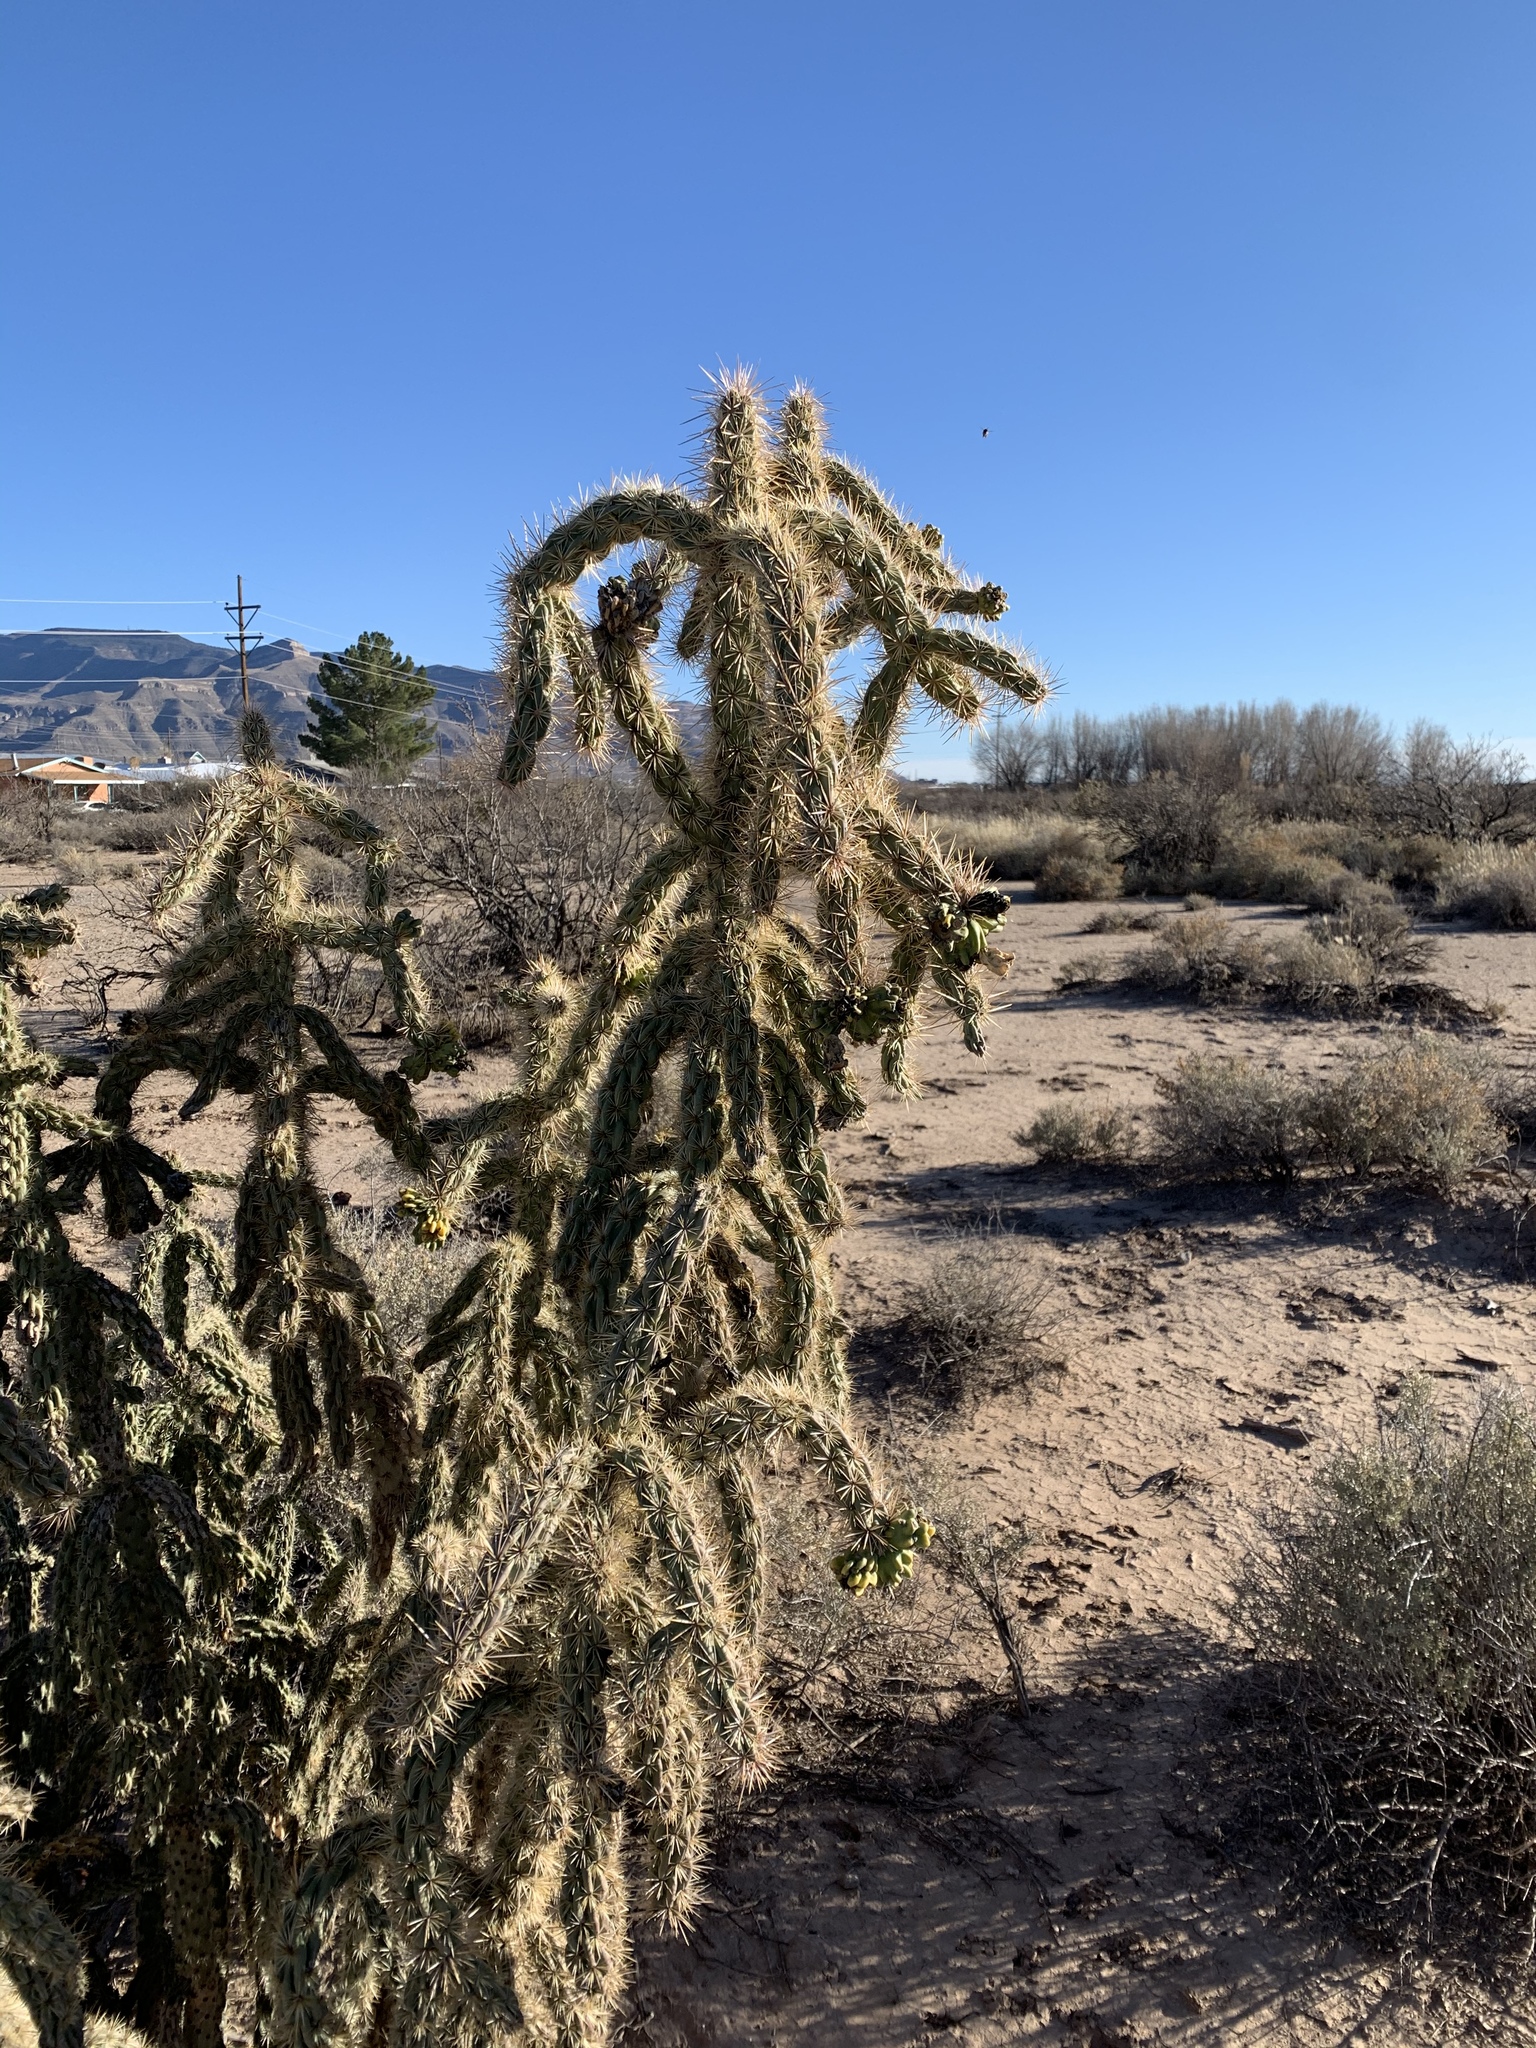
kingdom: Plantae
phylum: Tracheophyta
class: Magnoliopsida
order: Caryophyllales
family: Cactaceae
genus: Cylindropuntia
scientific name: Cylindropuntia imbricata
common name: Candelabrum cactus
